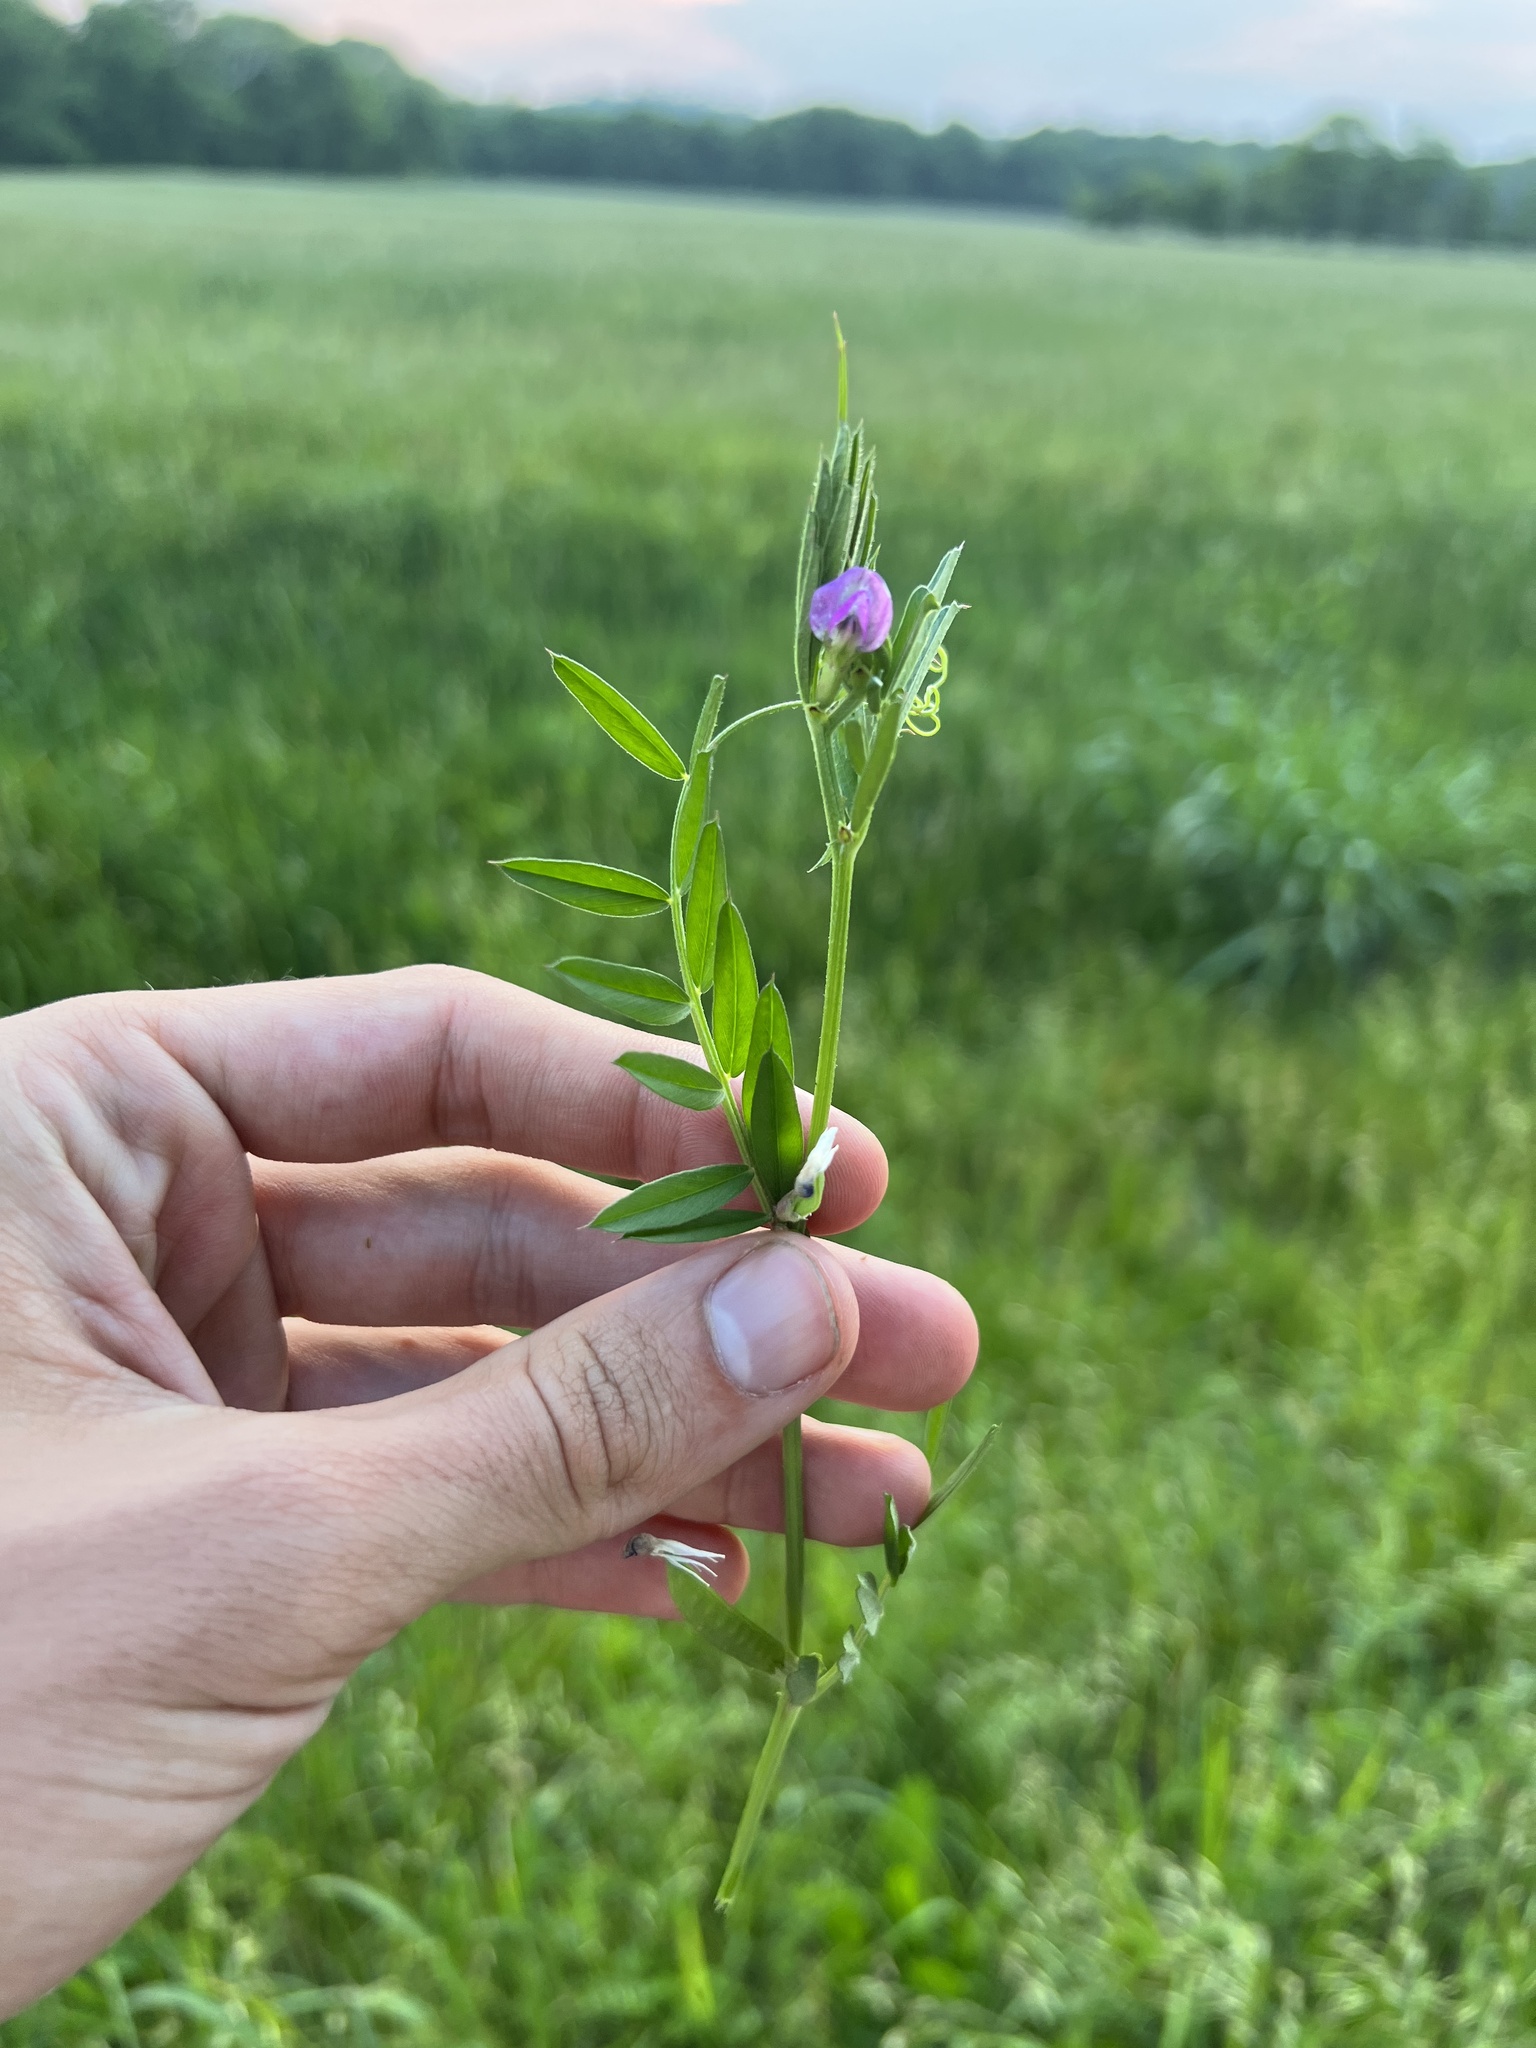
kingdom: Plantae
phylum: Tracheophyta
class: Magnoliopsida
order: Fabales
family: Fabaceae
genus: Vicia
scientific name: Vicia sativa
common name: Garden vetch
